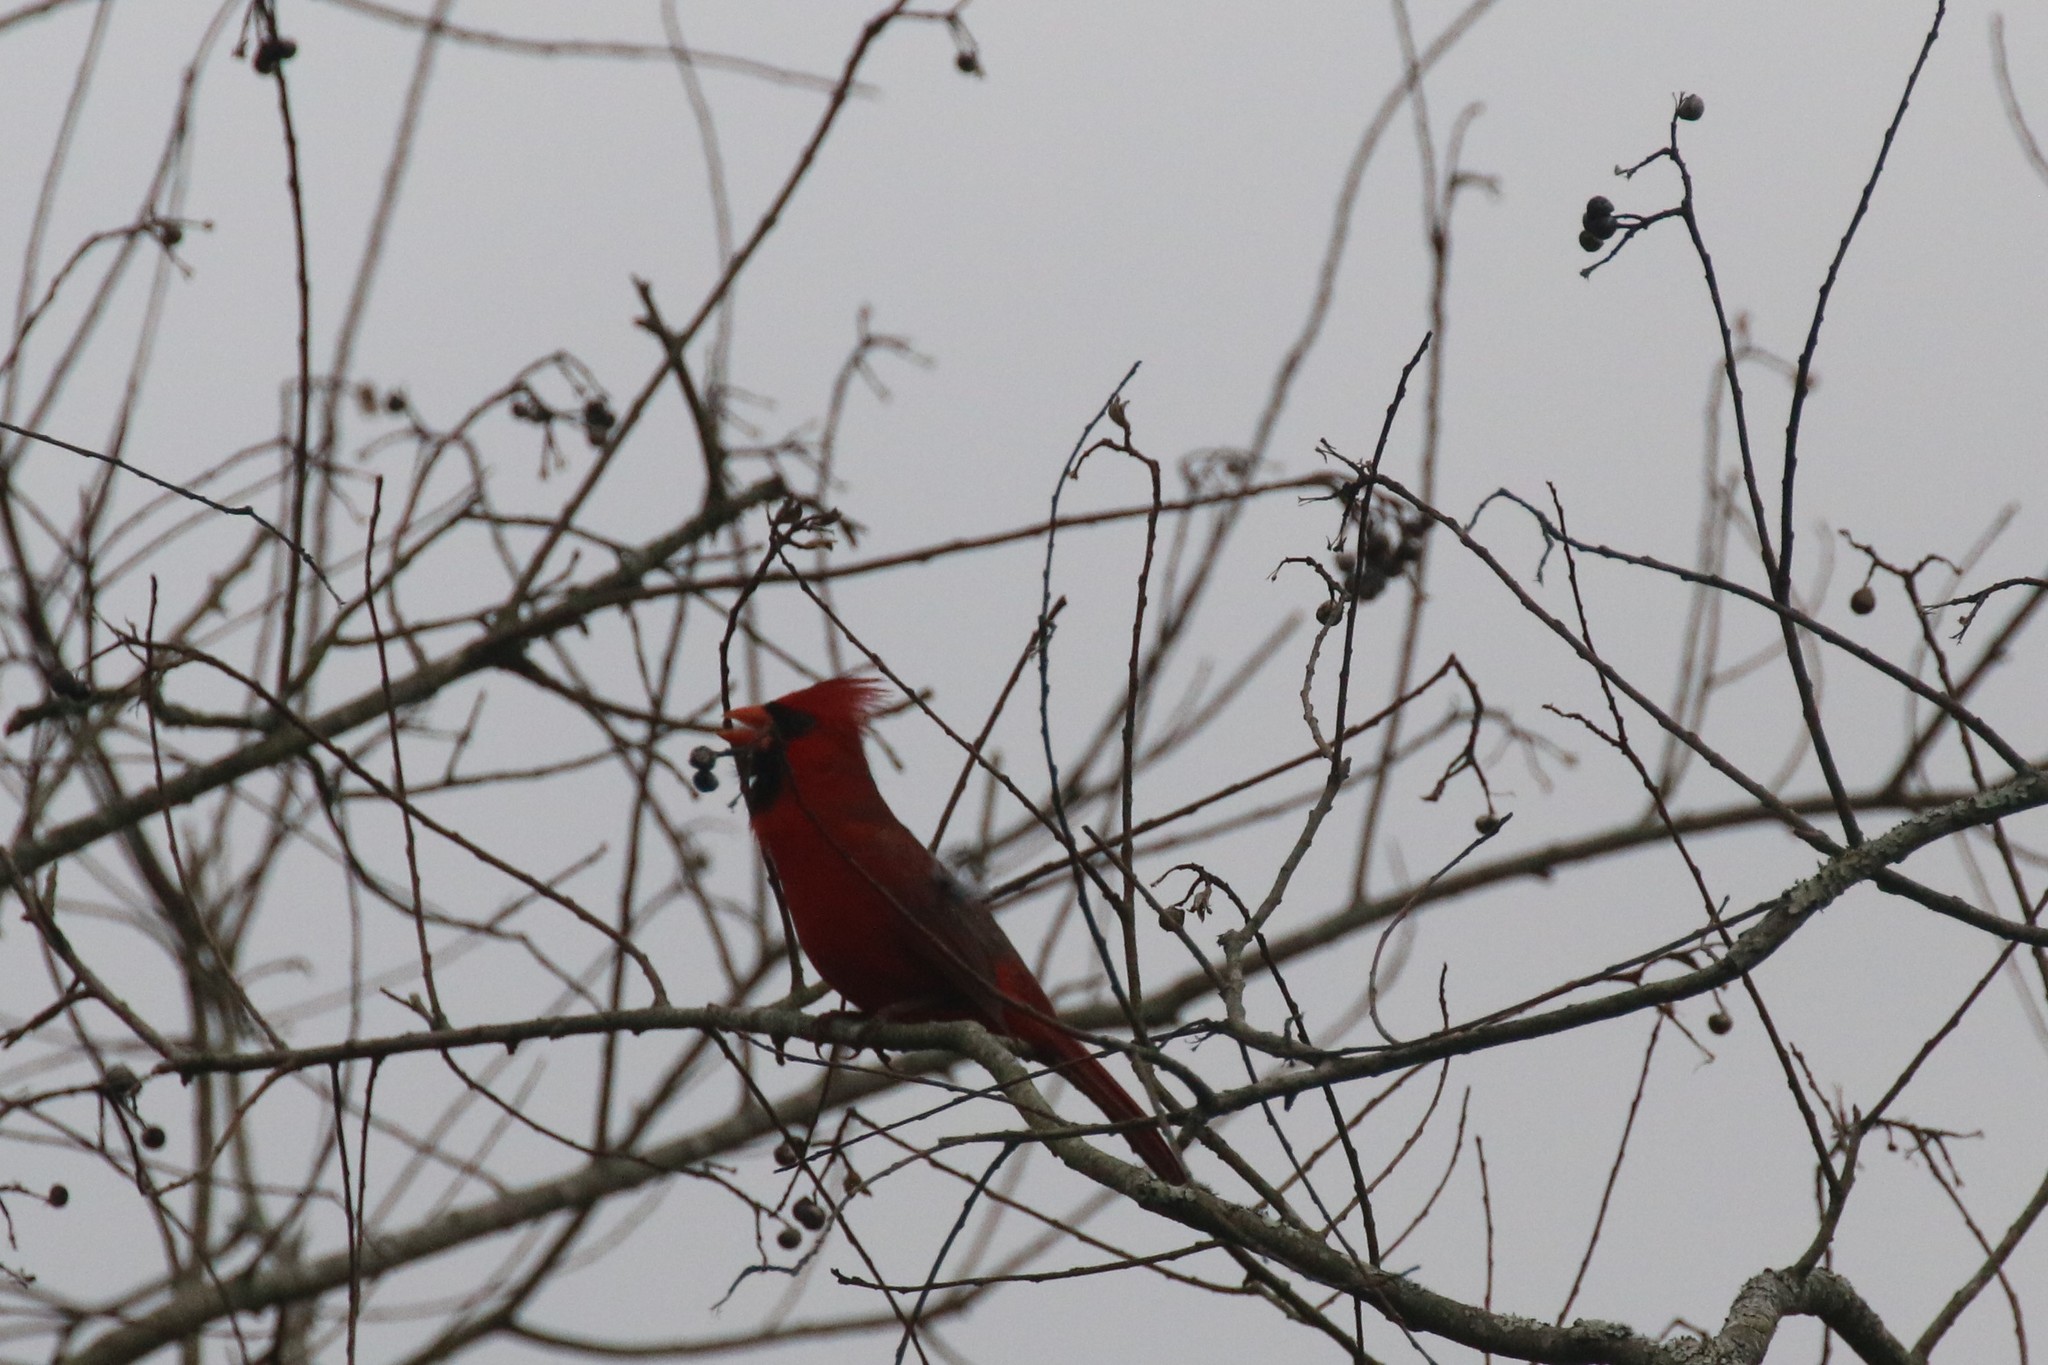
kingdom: Animalia
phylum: Chordata
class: Aves
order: Passeriformes
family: Cardinalidae
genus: Cardinalis
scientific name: Cardinalis cardinalis
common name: Northern cardinal
